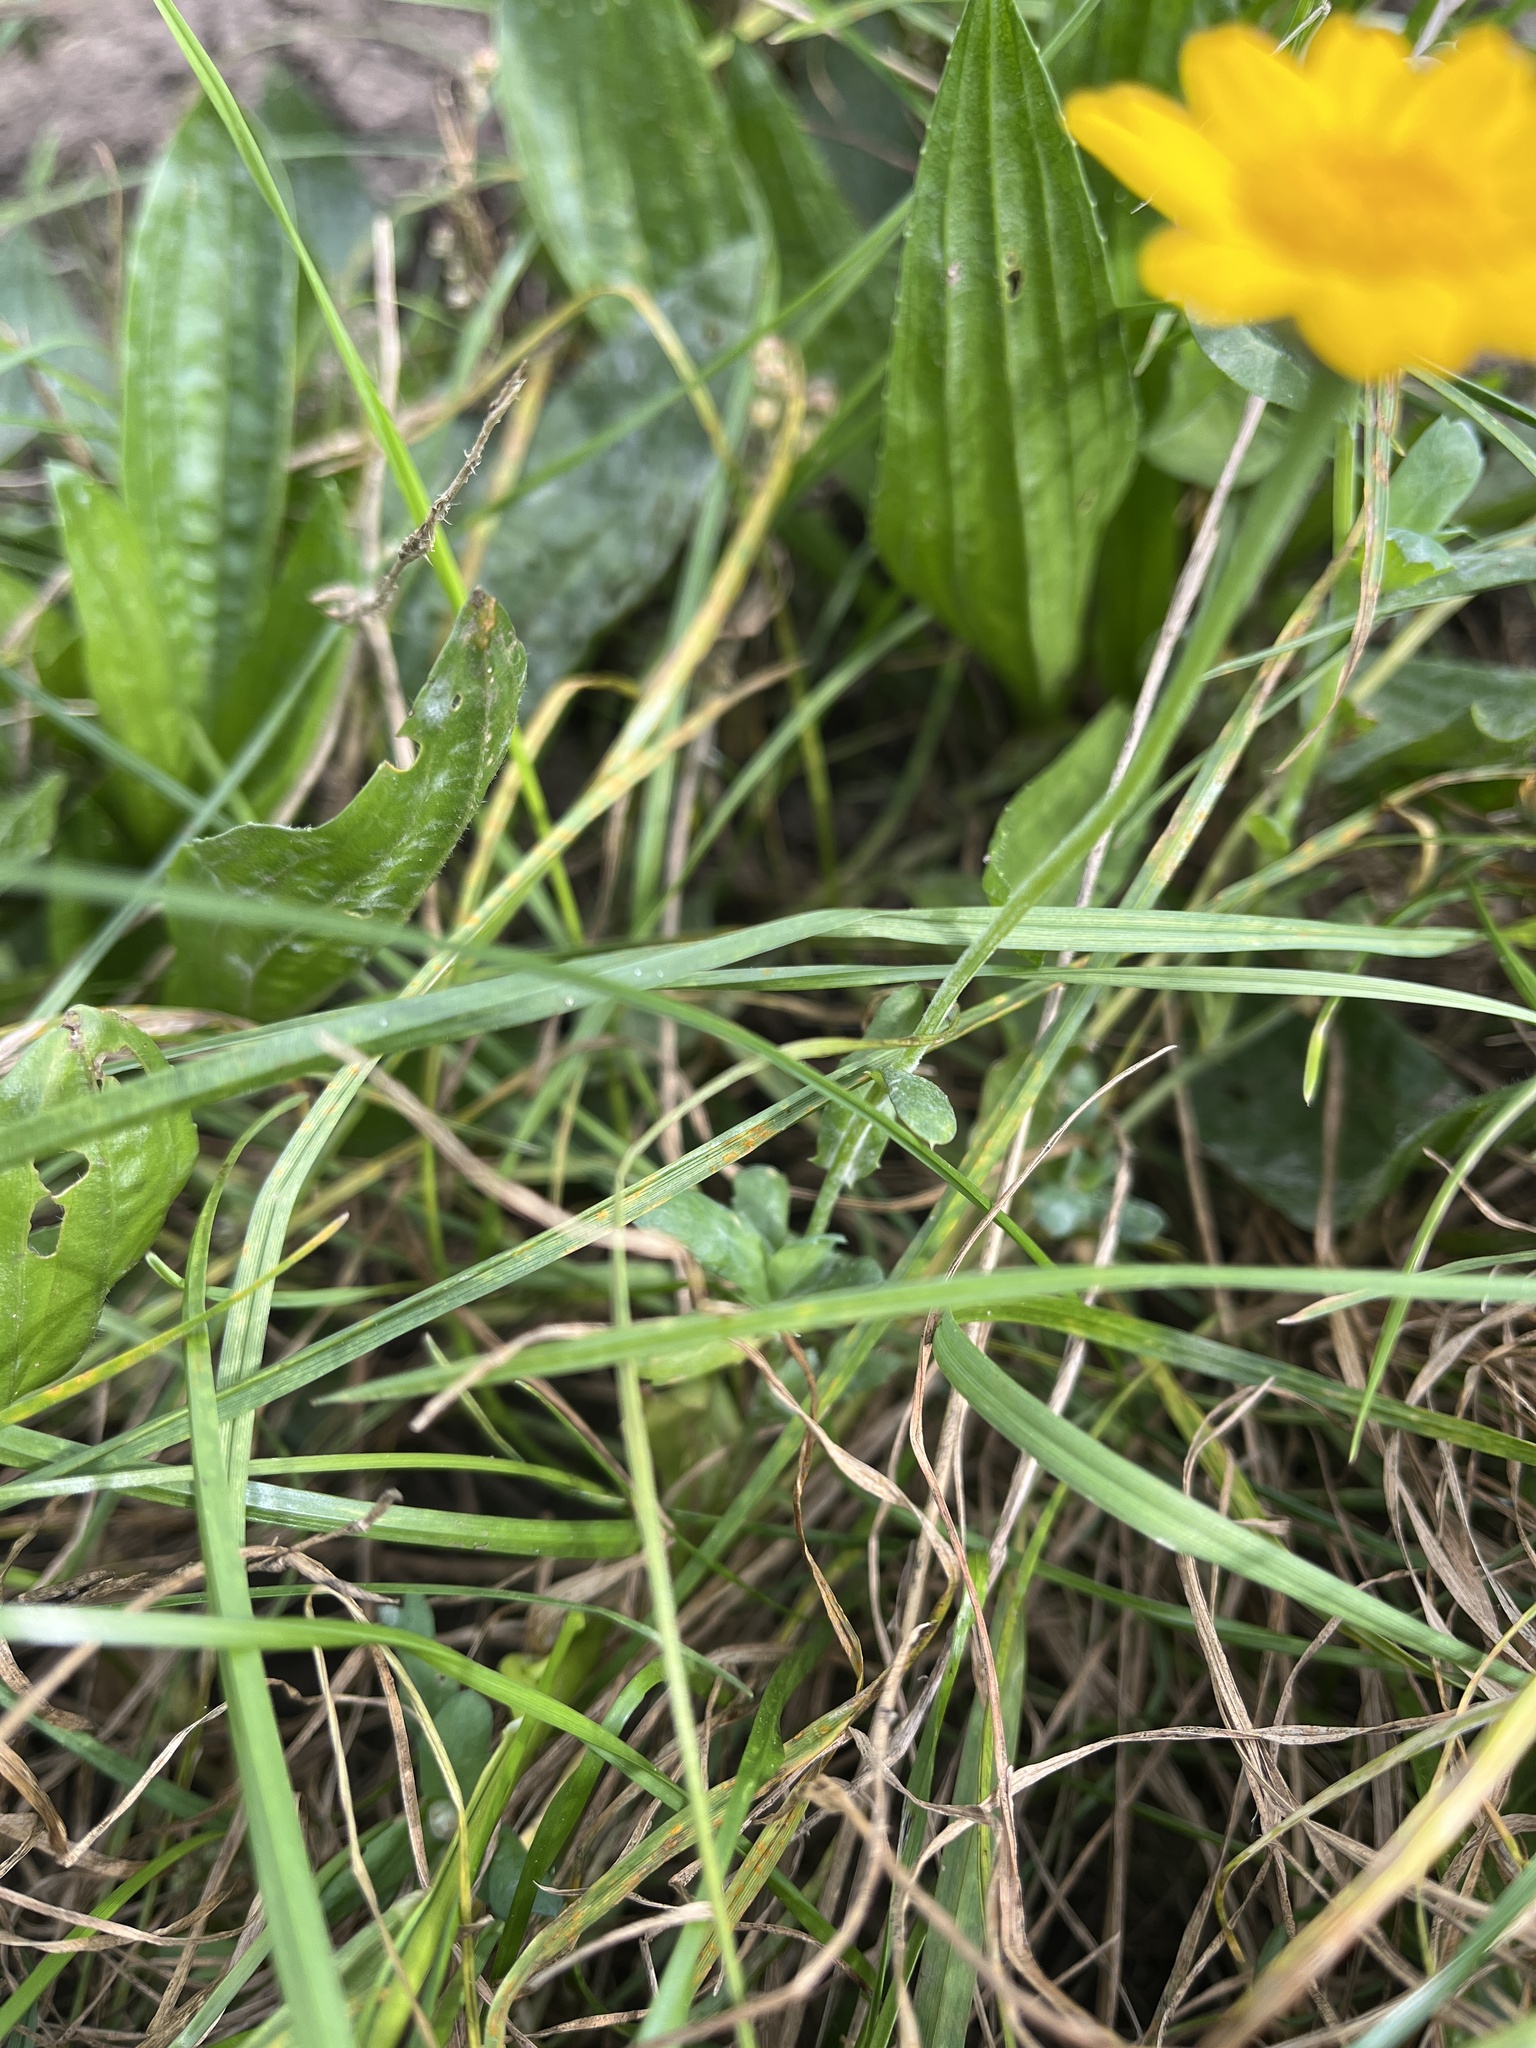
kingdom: Plantae
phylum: Tracheophyta
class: Magnoliopsida
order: Asterales
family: Asteraceae
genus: Glebionis
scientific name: Glebionis segetum
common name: Corndaisy
